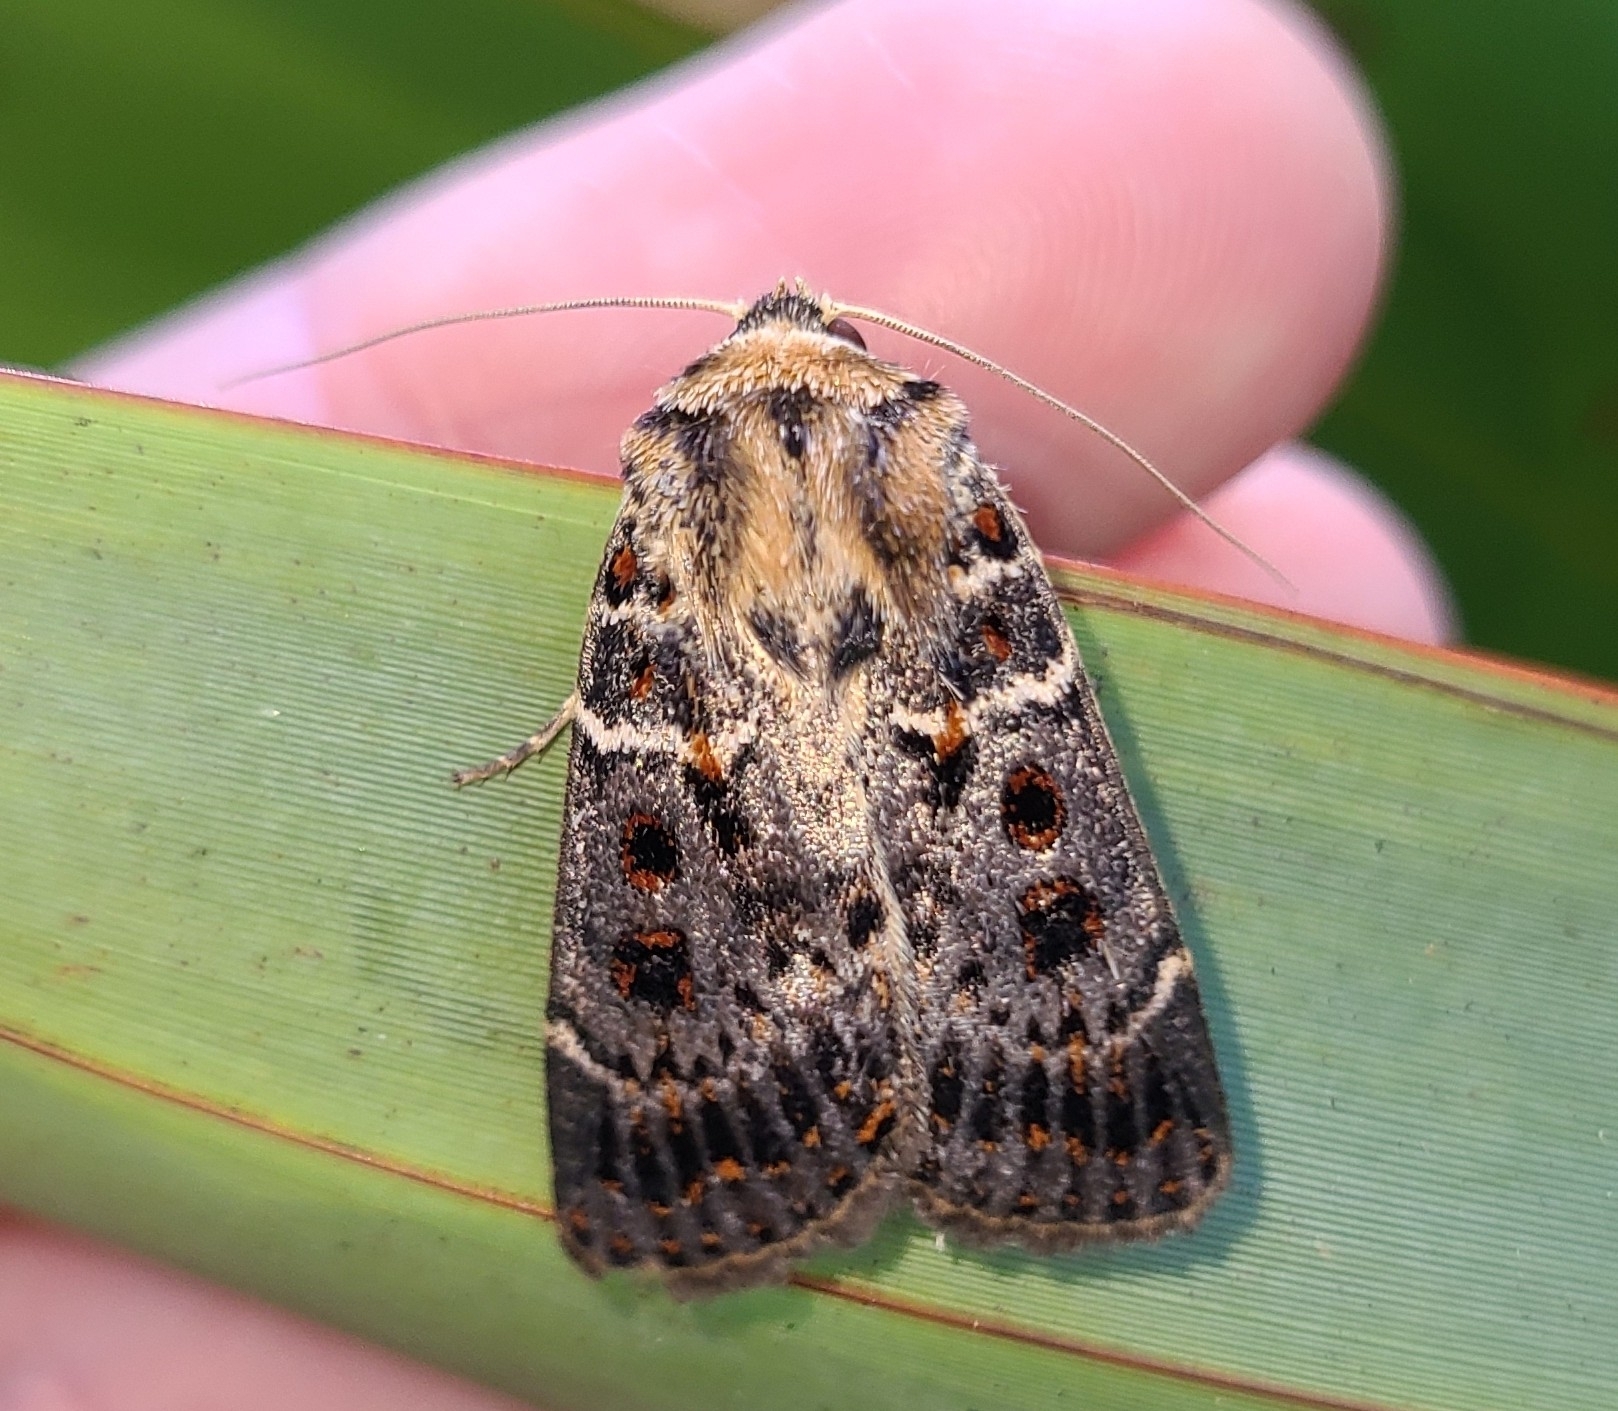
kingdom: Animalia
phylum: Arthropoda
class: Insecta
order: Lepidoptera
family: Noctuidae
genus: Proteuxoa
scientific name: Proteuxoa sanguinipuncta
